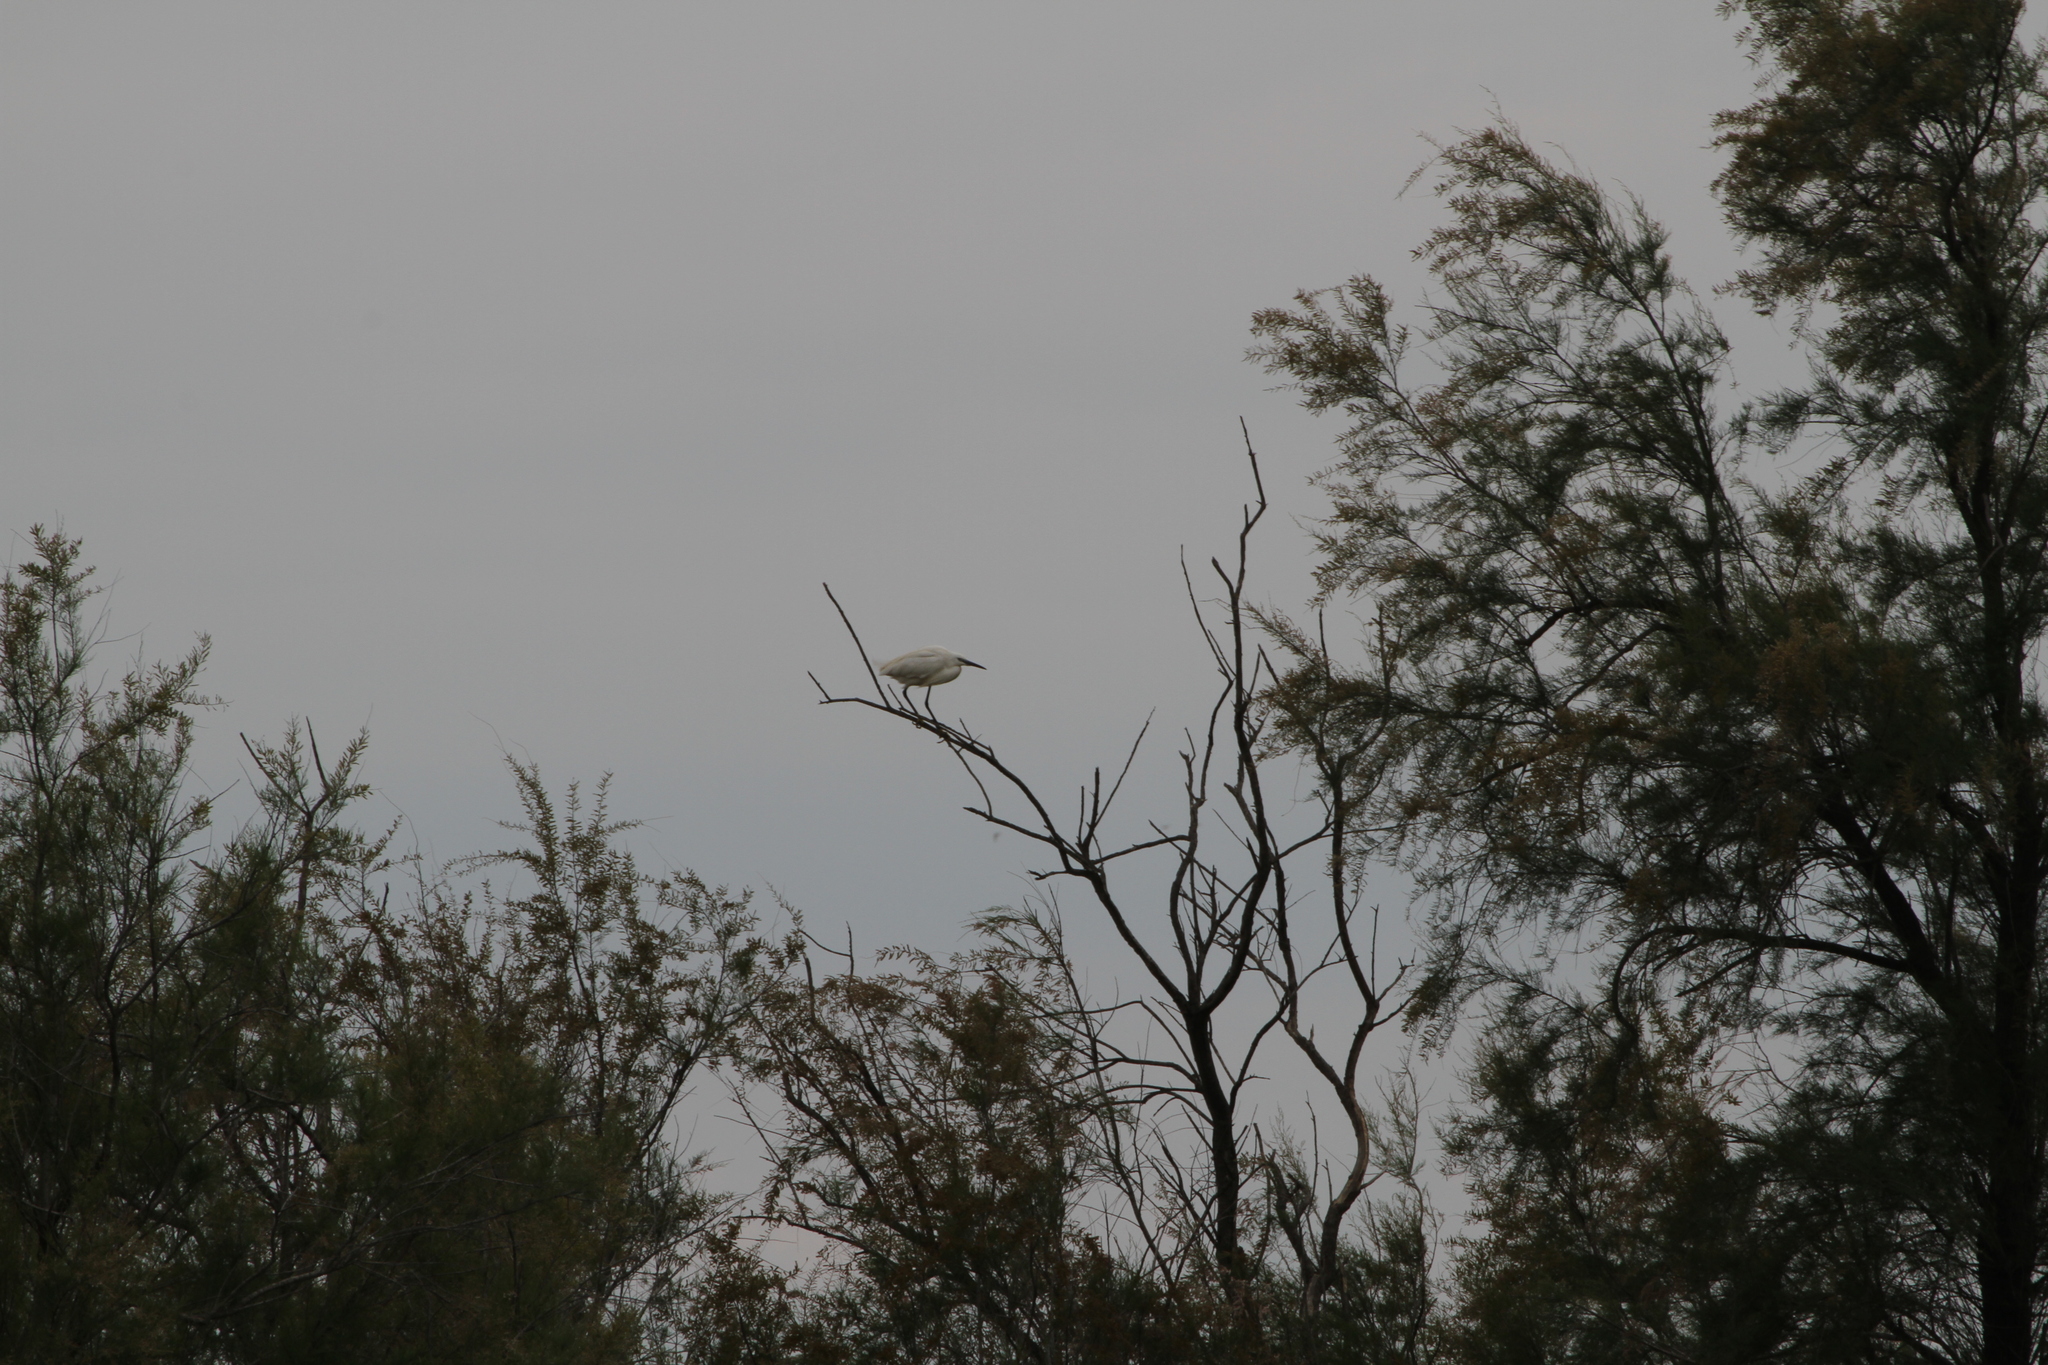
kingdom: Animalia
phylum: Chordata
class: Aves
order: Pelecaniformes
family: Ardeidae
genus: Egretta
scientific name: Egretta garzetta
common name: Little egret
